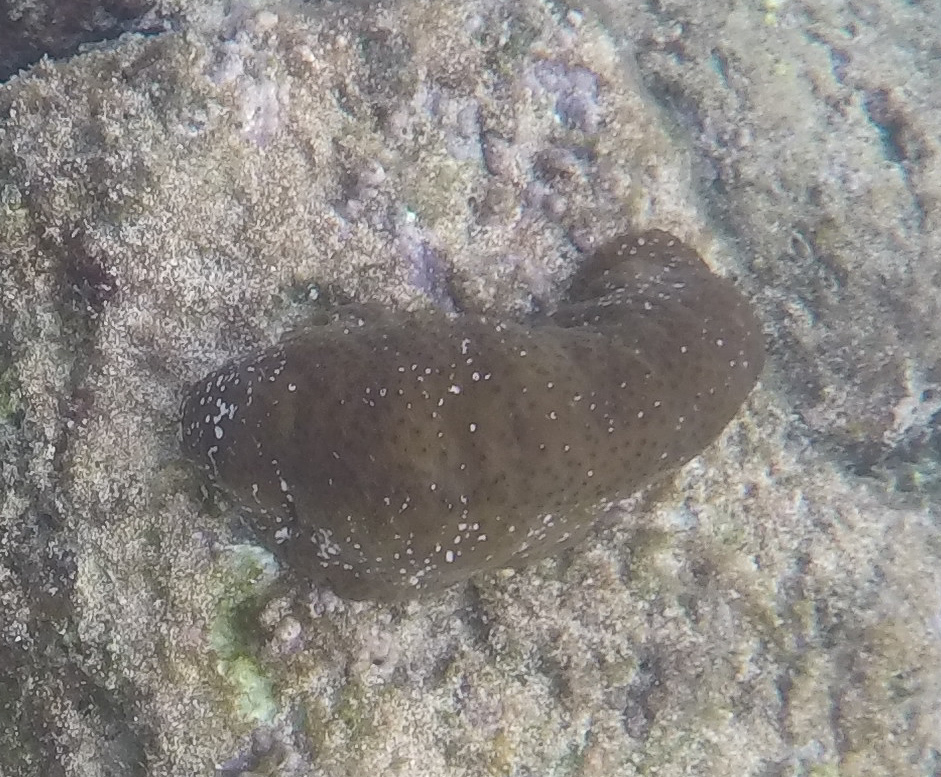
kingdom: Animalia
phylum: Echinodermata
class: Holothuroidea
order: Holothuriida
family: Holothuriidae
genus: Actinopyga
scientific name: Actinopyga varians
